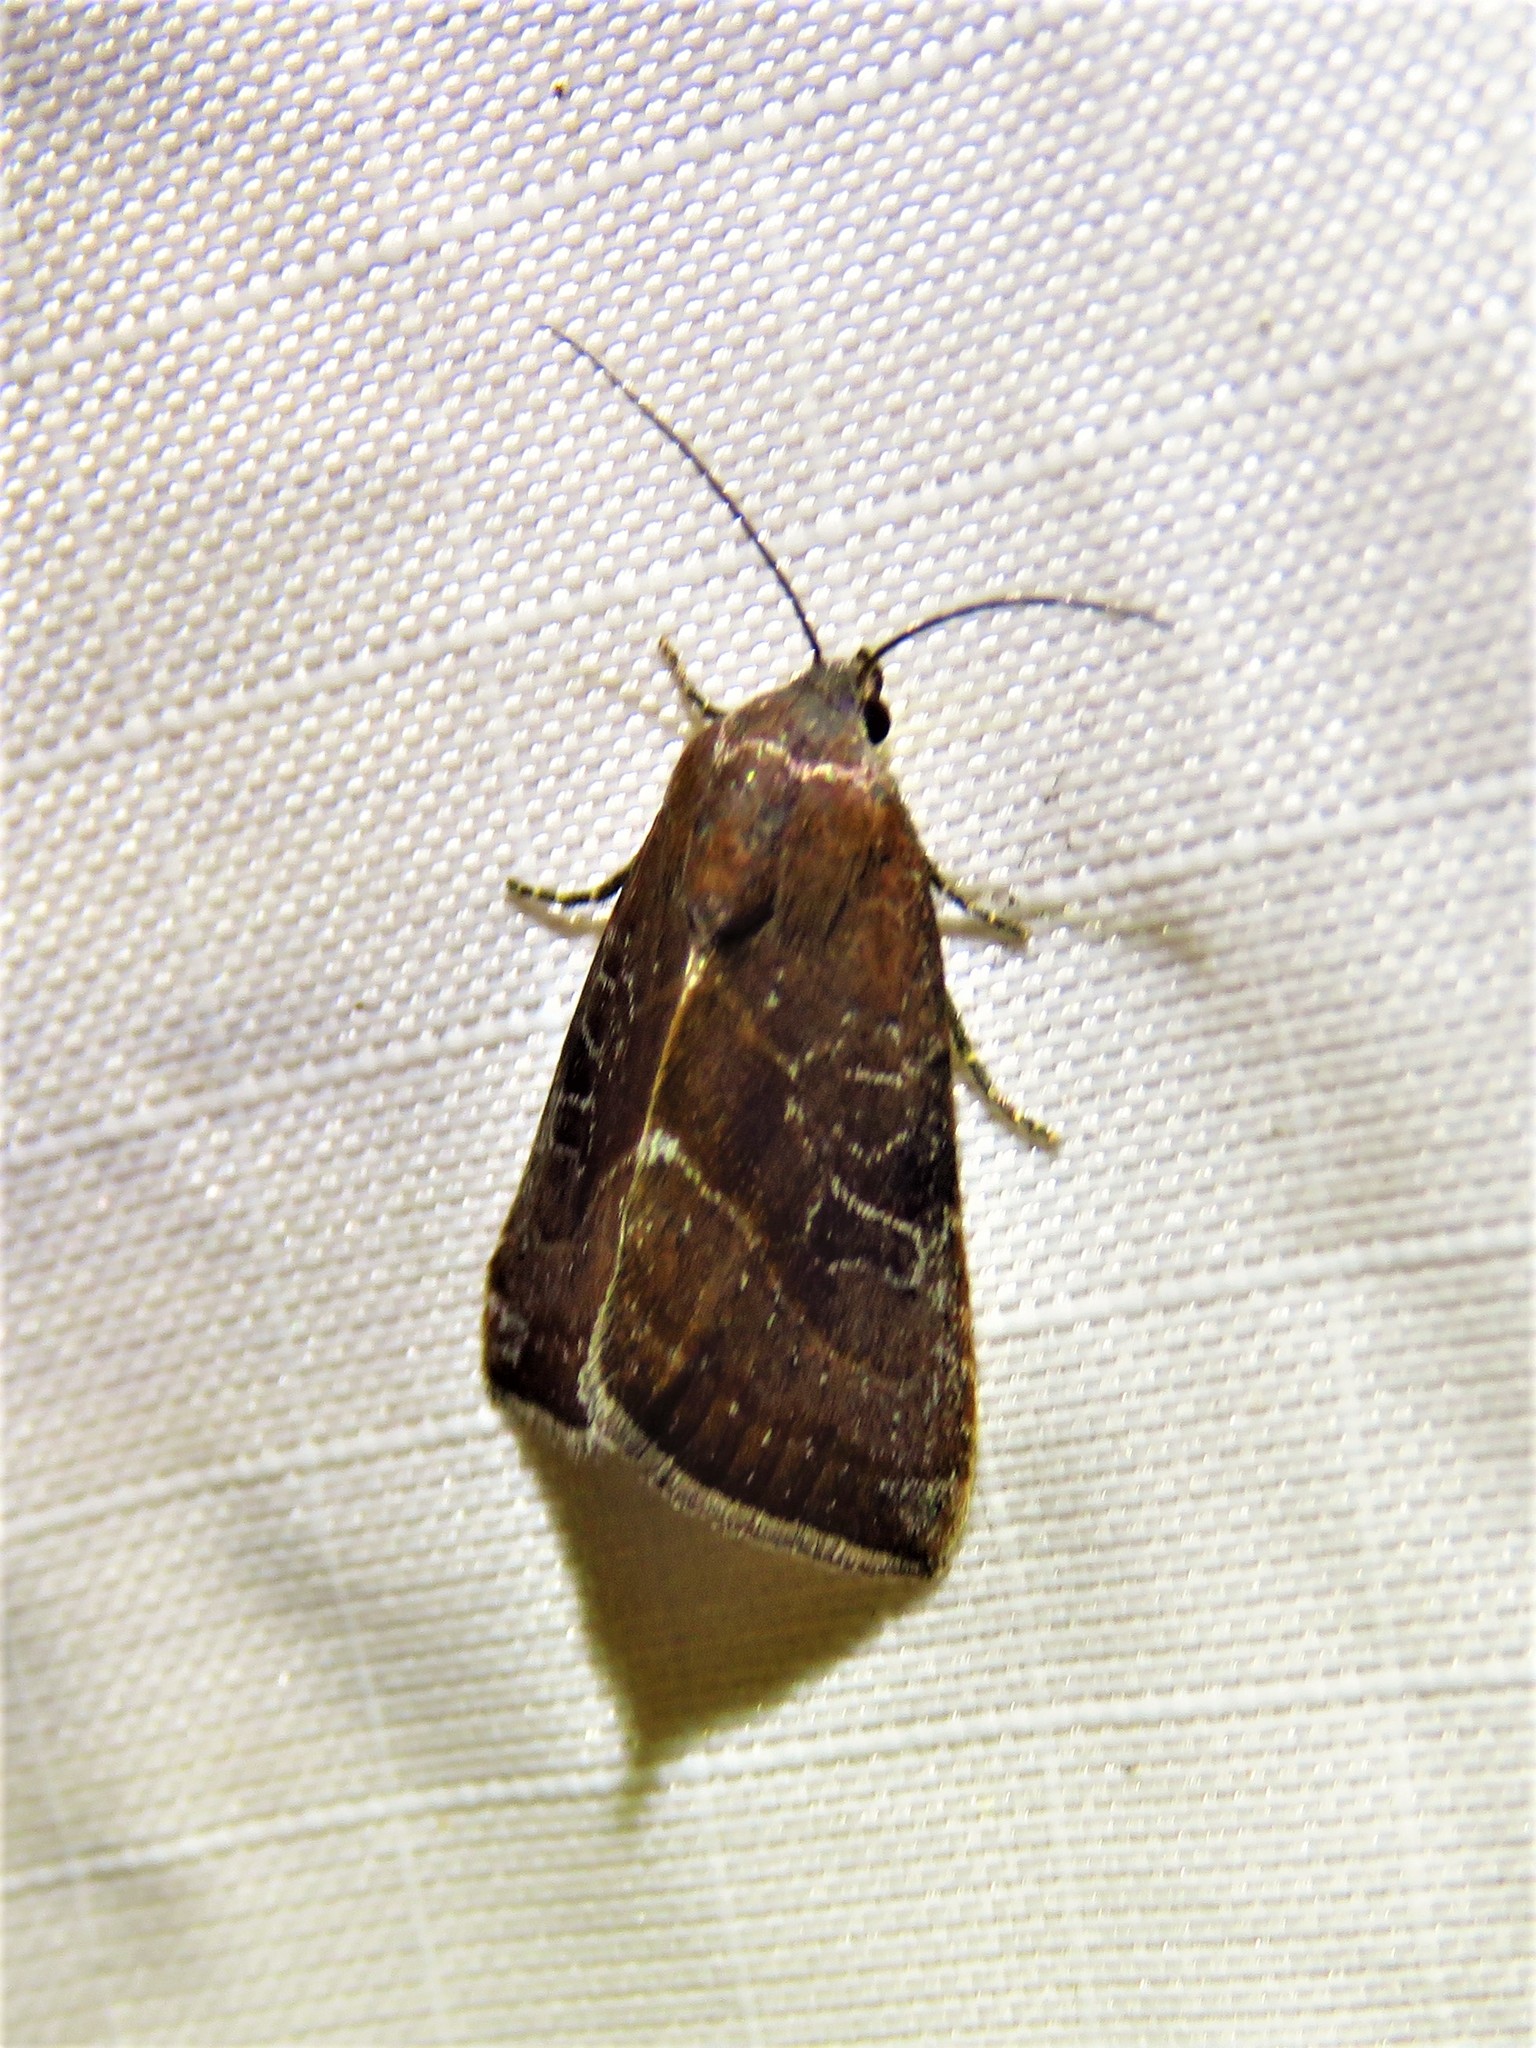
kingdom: Animalia
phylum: Arthropoda
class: Insecta
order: Lepidoptera
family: Noctuidae
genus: Galgula
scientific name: Galgula partita
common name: Wedgeling
